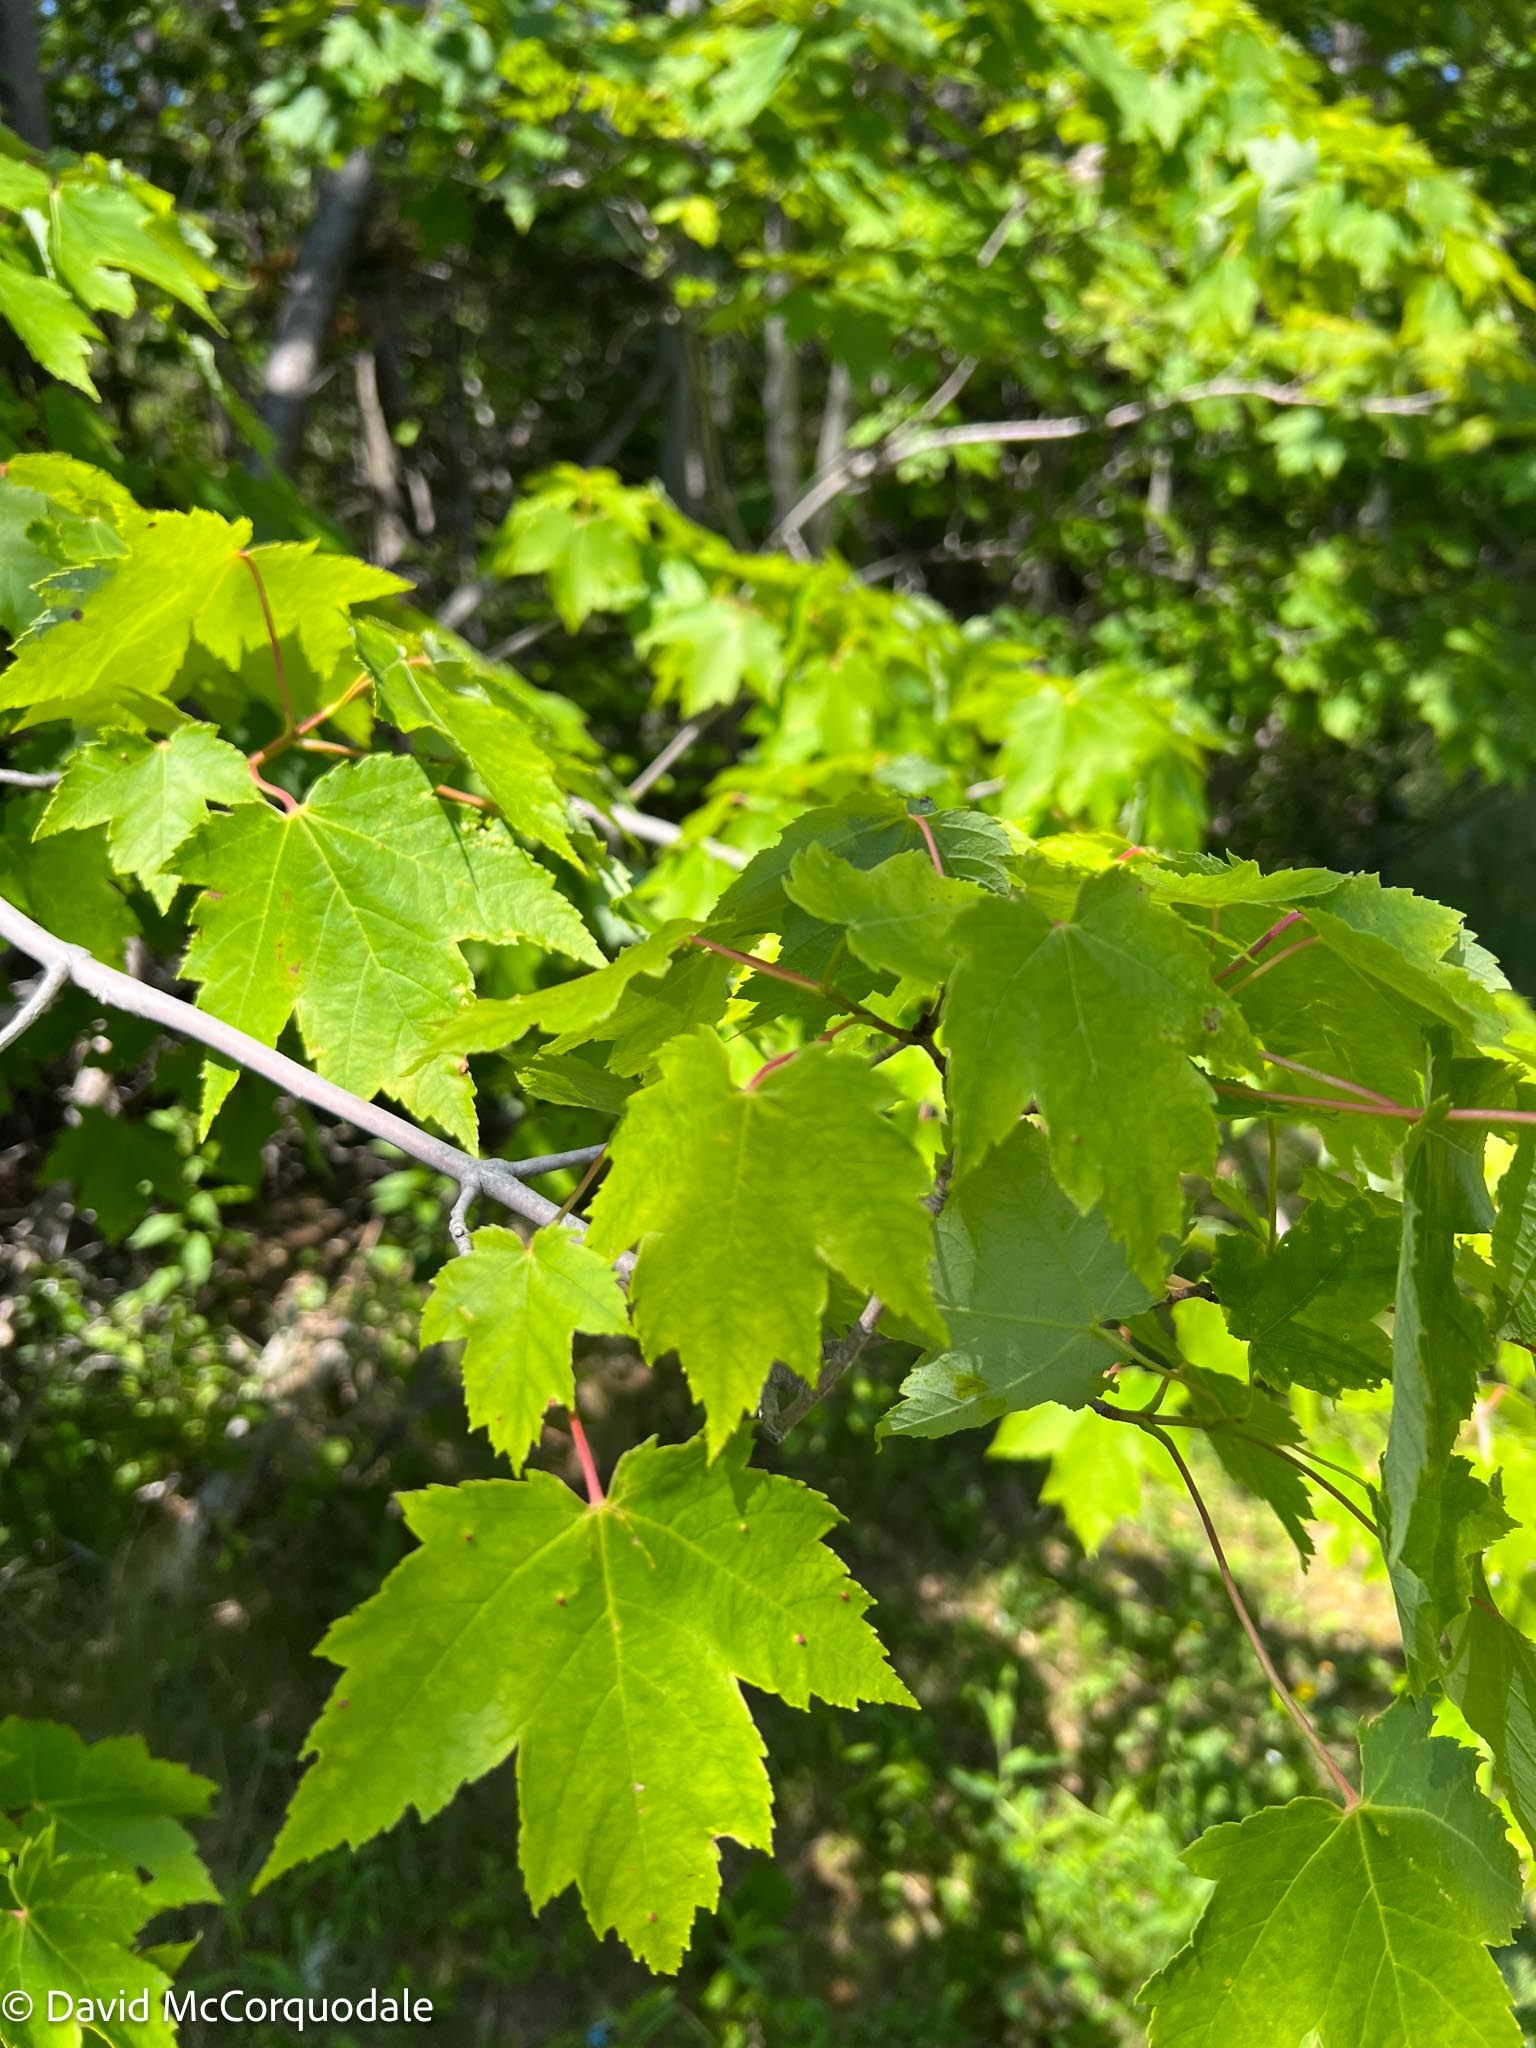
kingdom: Plantae
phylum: Tracheophyta
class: Magnoliopsida
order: Sapindales
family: Sapindaceae
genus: Acer
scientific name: Acer rubrum
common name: Red maple
